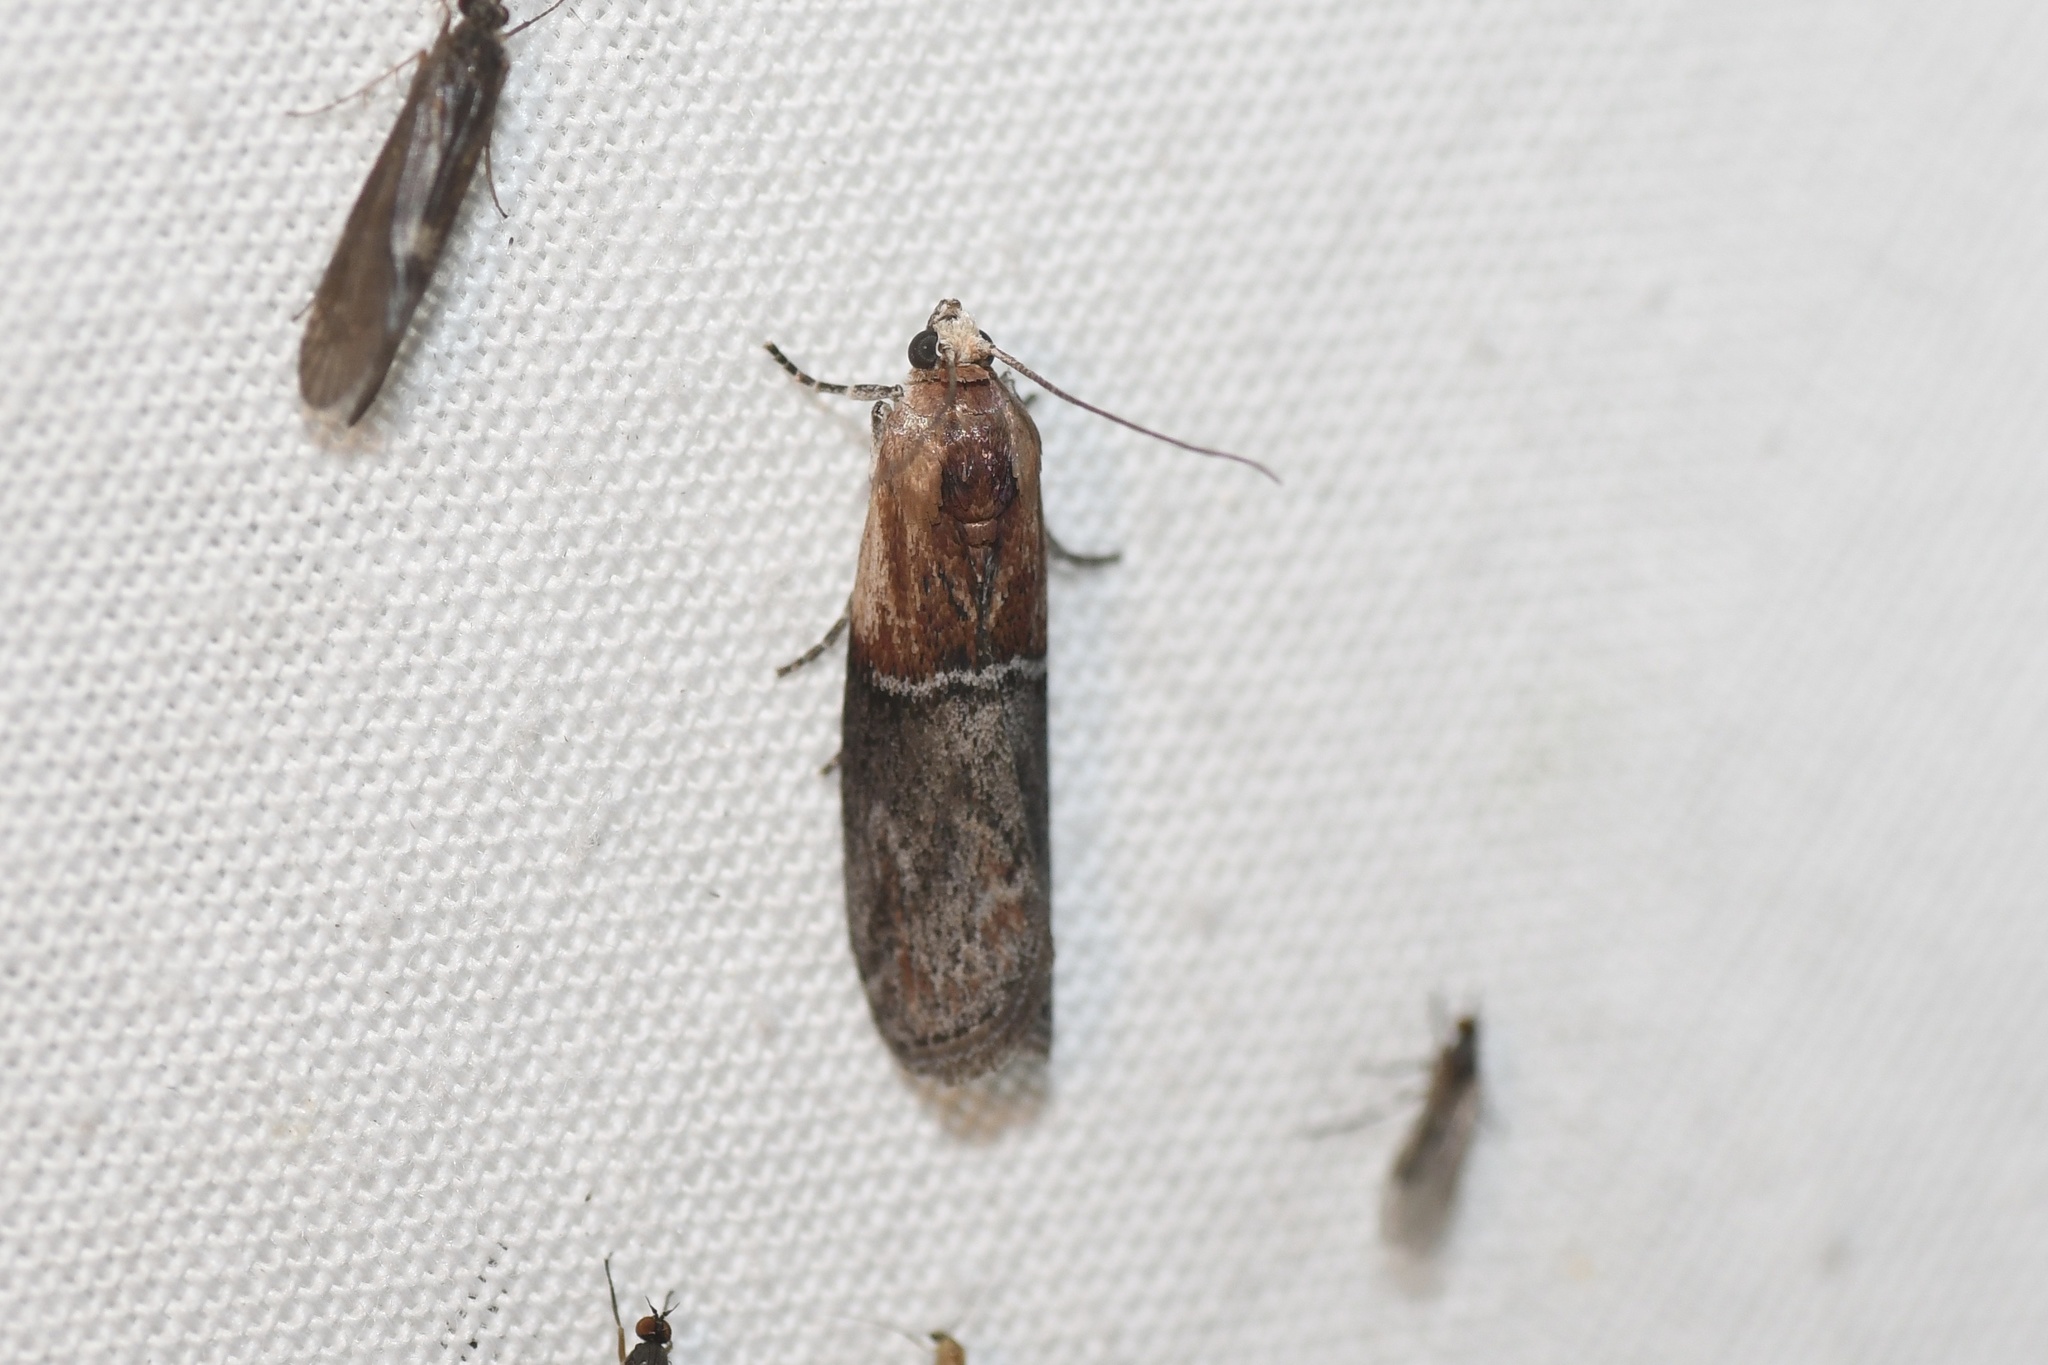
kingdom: Animalia
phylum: Arthropoda
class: Insecta
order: Lepidoptera
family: Pyralidae
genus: Sciota
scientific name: Sciota basilaris
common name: Yellow-shouldered leafroller
